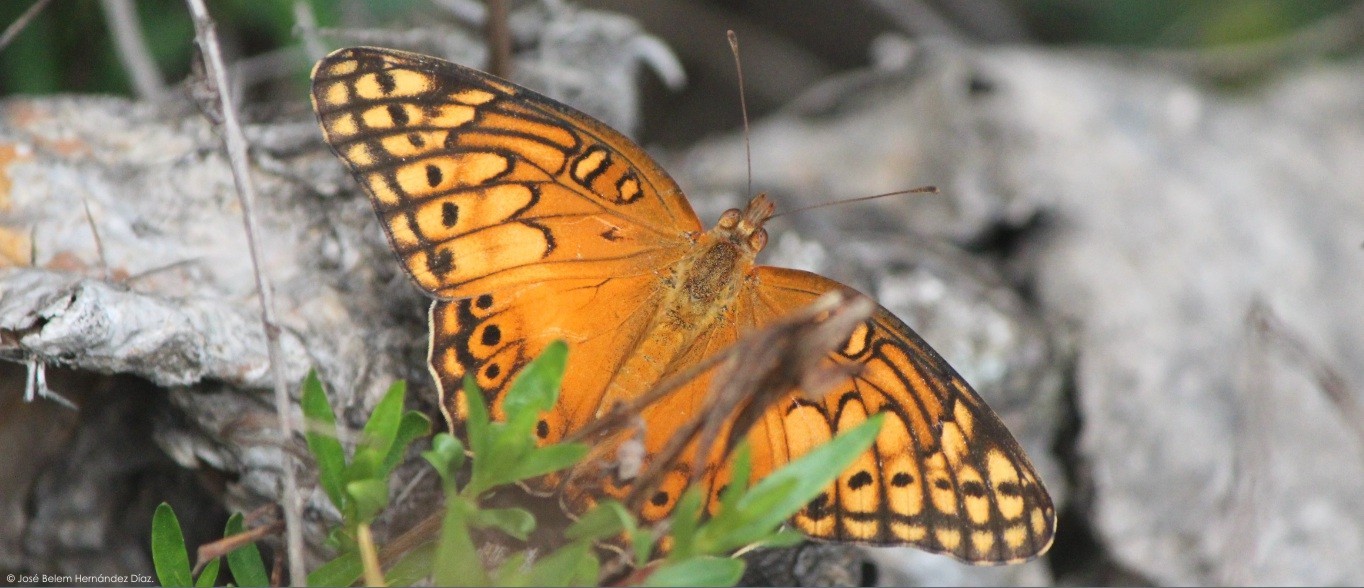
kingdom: Animalia
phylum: Arthropoda
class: Insecta
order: Lepidoptera
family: Nymphalidae
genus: Euptoieta
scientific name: Euptoieta hegesia
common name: Mexican fritillary
